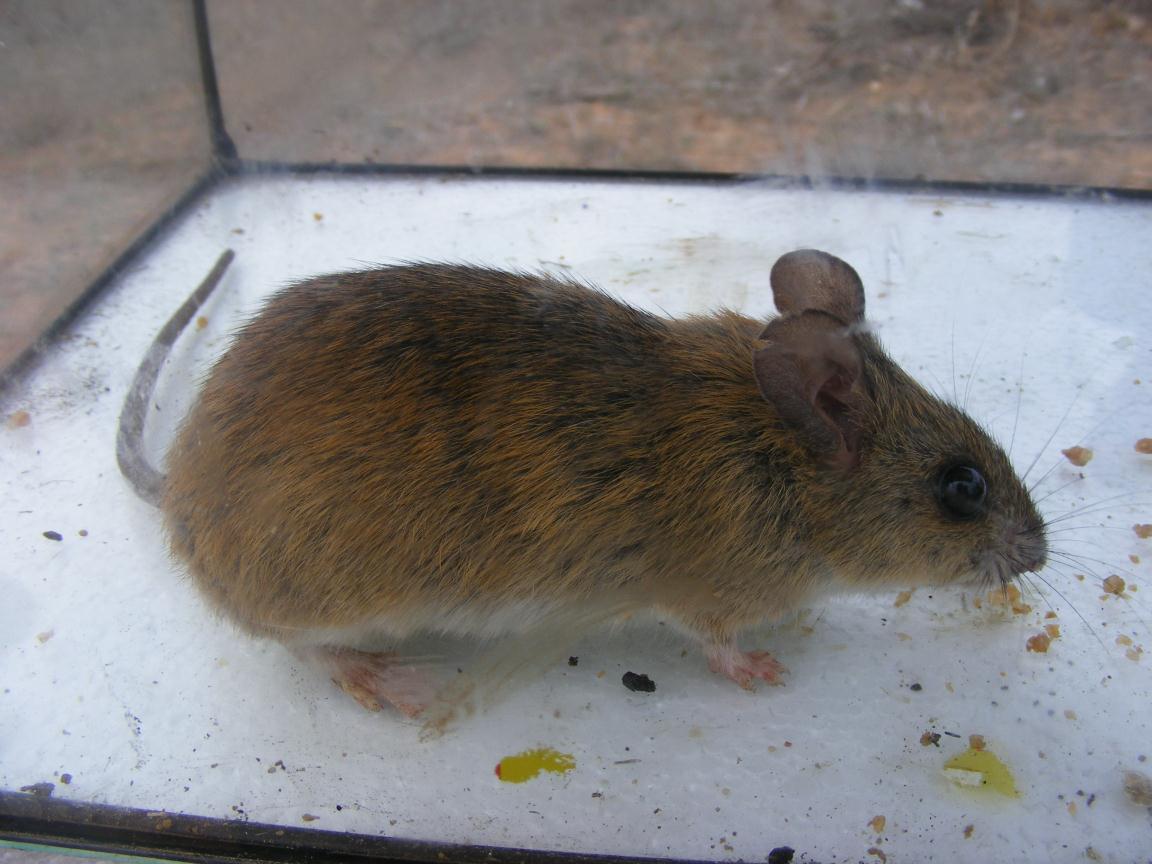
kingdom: Animalia
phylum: Chordata
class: Mammalia
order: Rodentia
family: Muridae
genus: Micaelamys
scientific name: Micaelamys namaquensis
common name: Namaqua micaelamys
